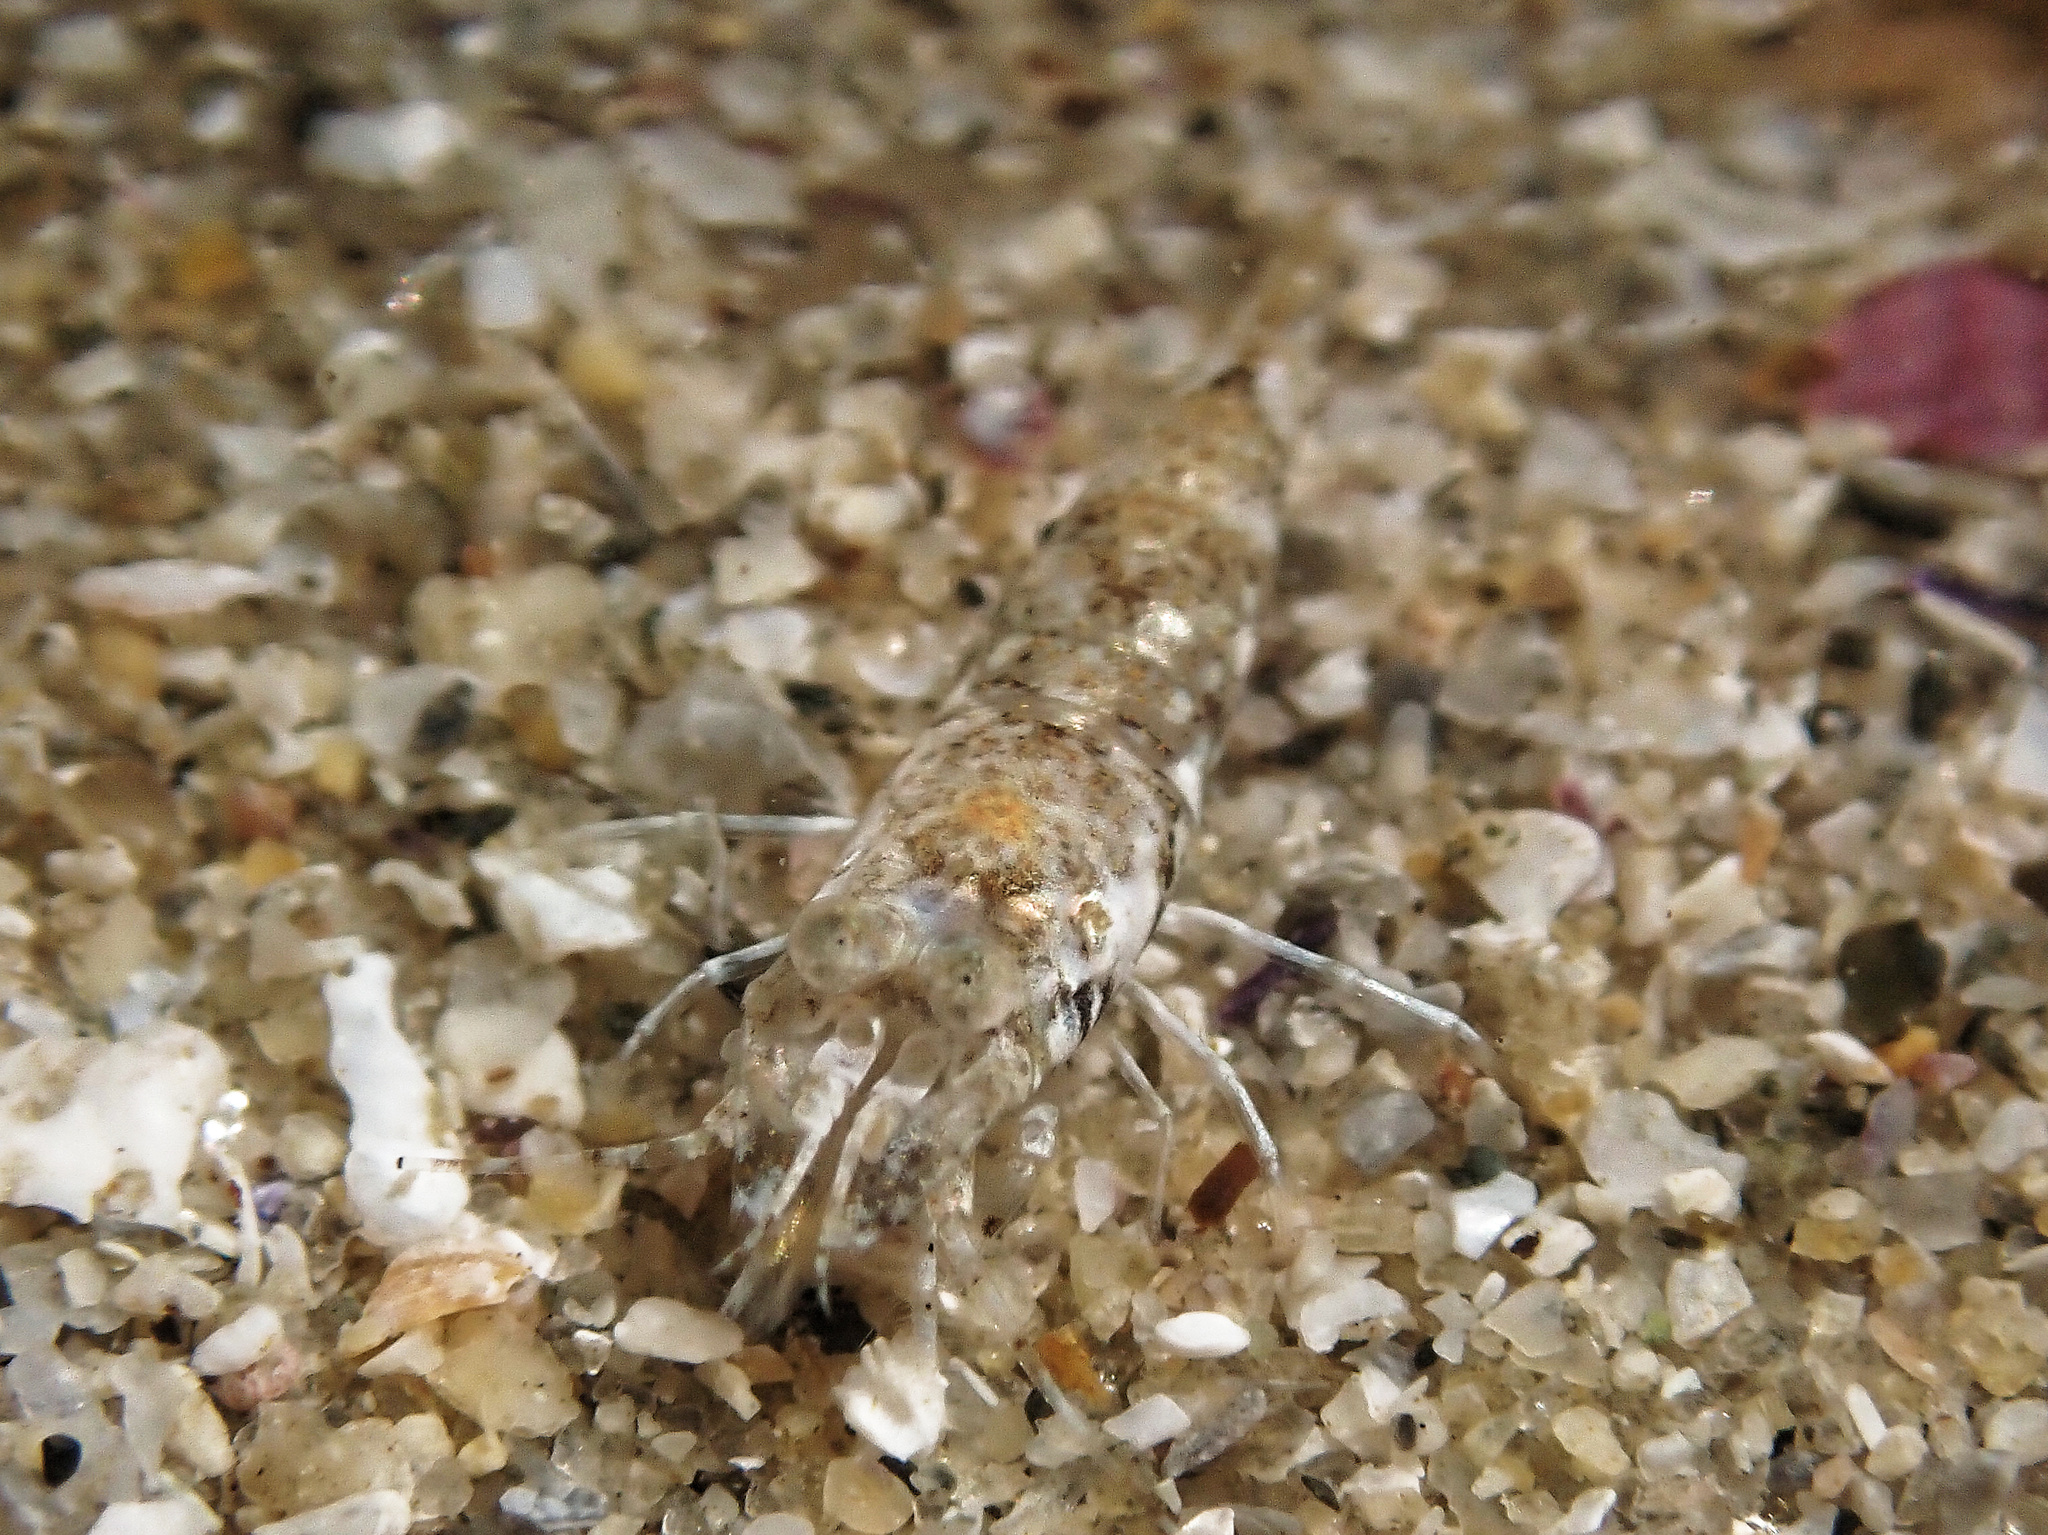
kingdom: Animalia
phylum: Arthropoda
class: Malacostraca
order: Decapoda
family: Crangonidae
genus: Philocheras
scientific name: Philocheras trispinosus
